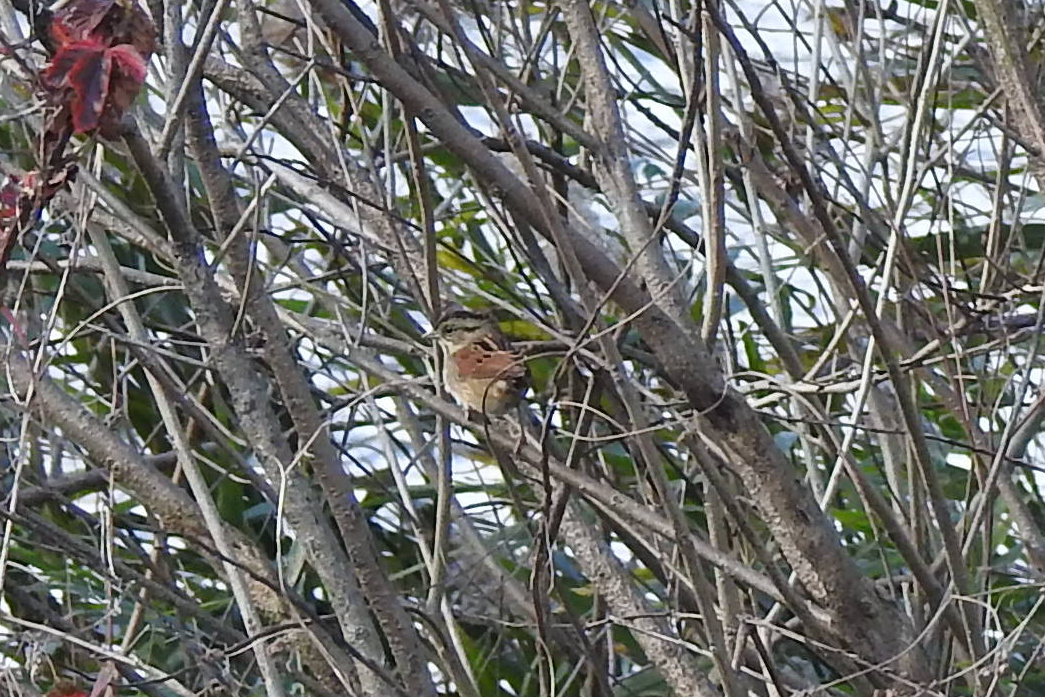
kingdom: Animalia
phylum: Chordata
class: Aves
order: Passeriformes
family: Passerellidae
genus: Melospiza
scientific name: Melospiza georgiana
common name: Swamp sparrow
